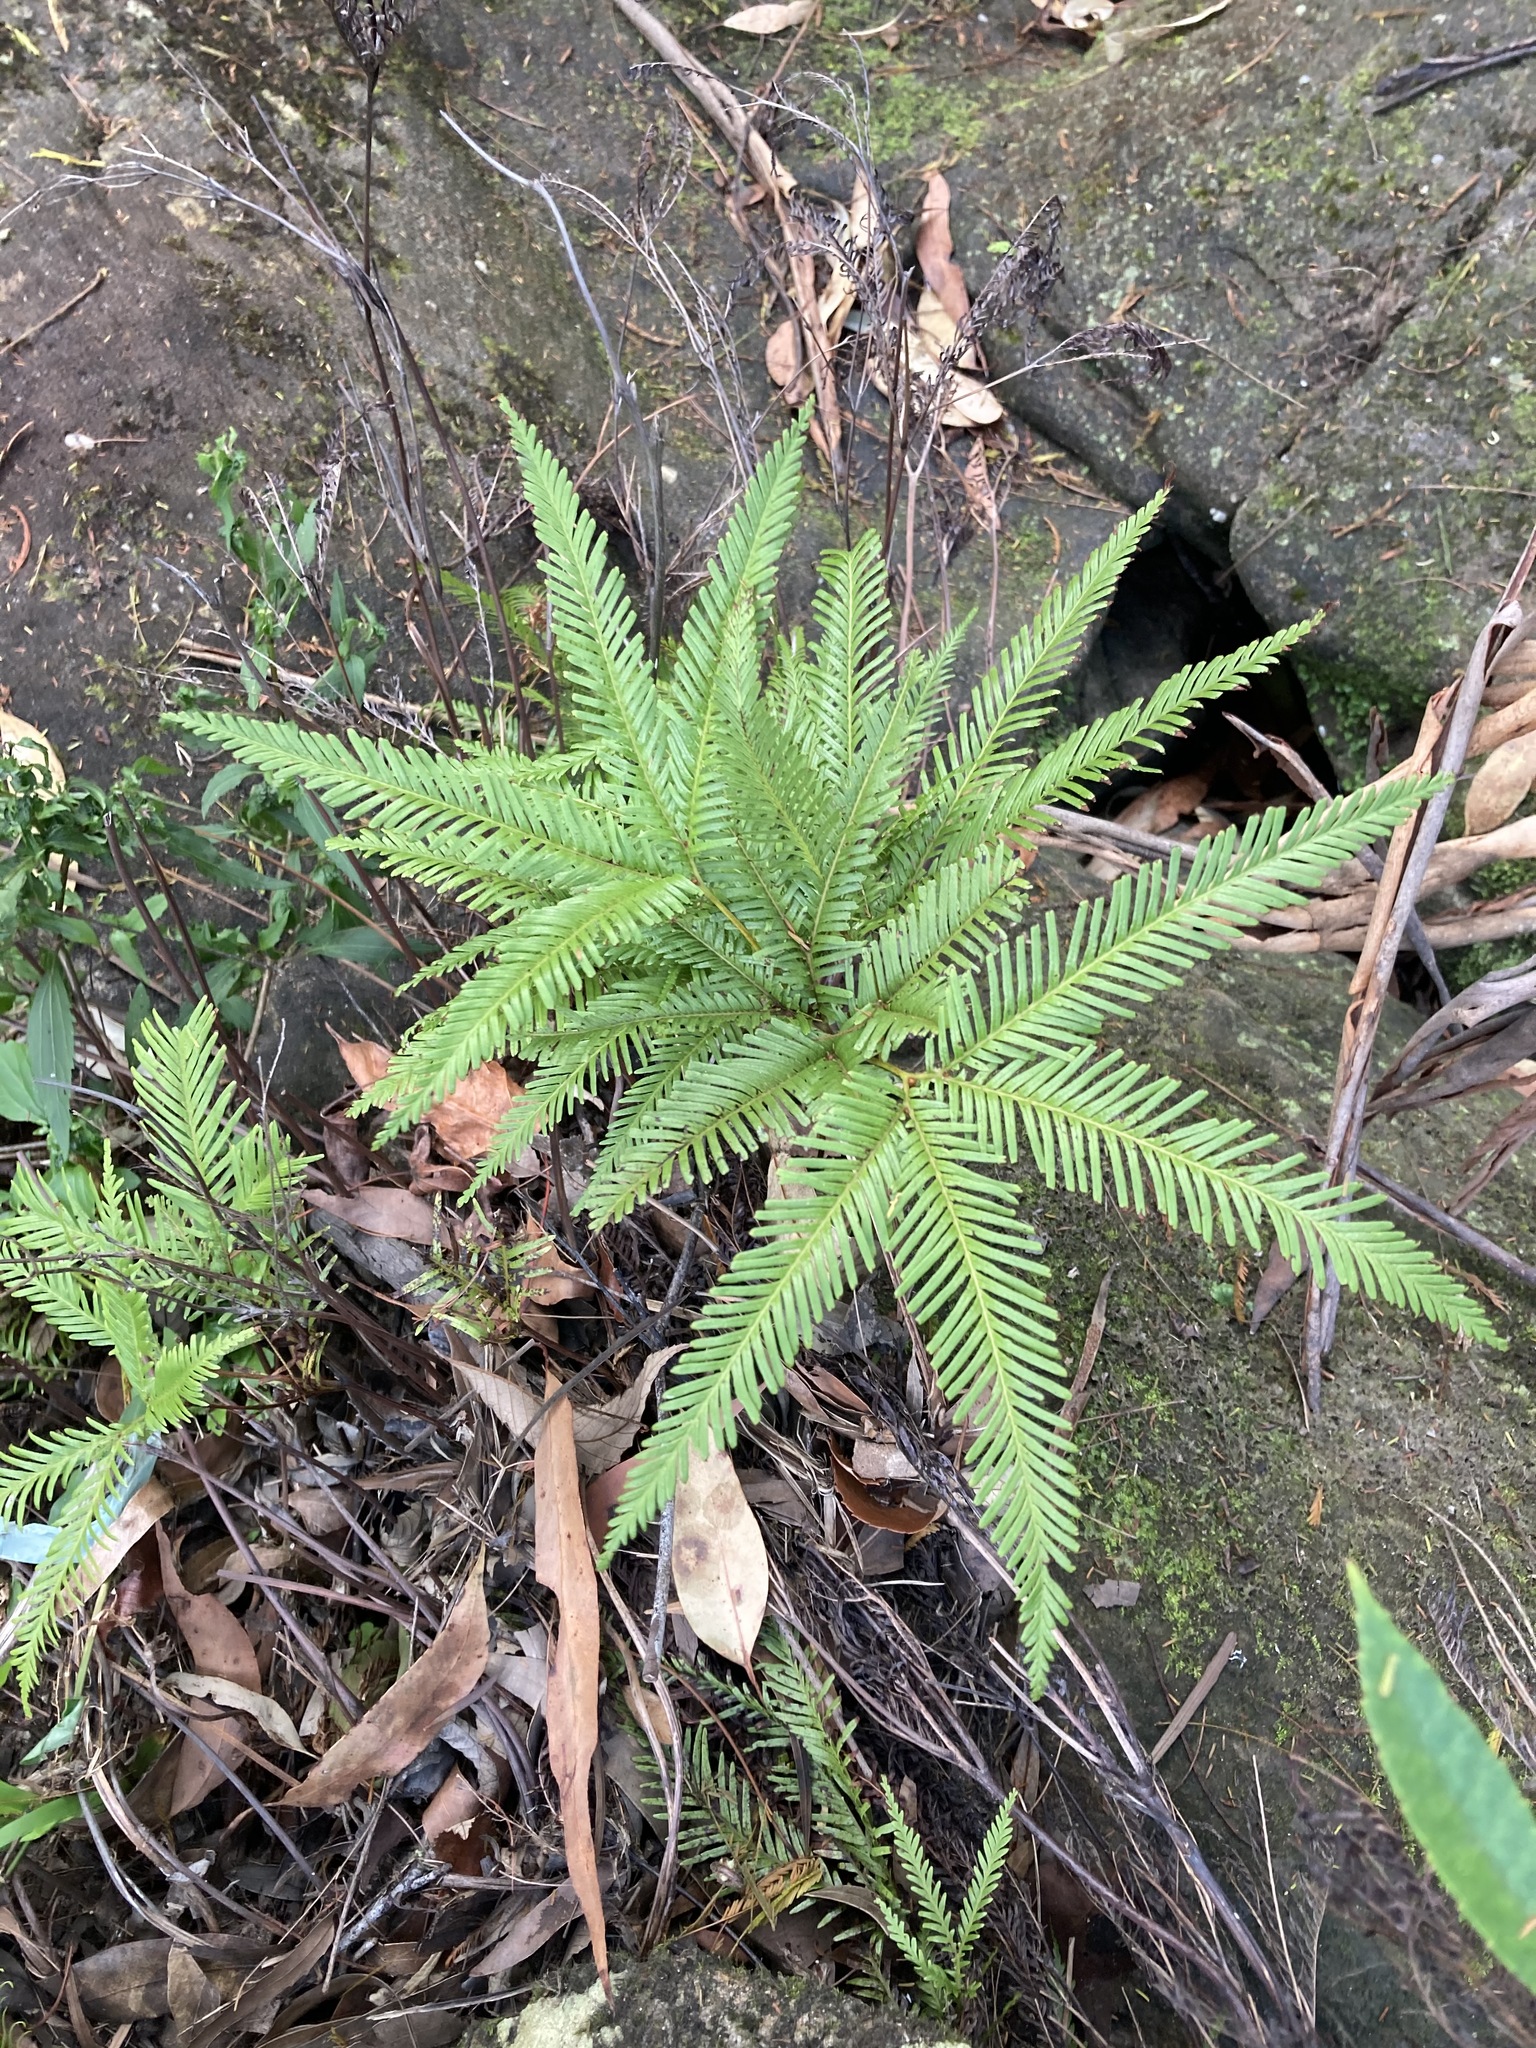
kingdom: Plantae
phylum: Tracheophyta
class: Polypodiopsida
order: Gleicheniales
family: Gleicheniaceae
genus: Sticherus
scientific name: Sticherus flabellatus
